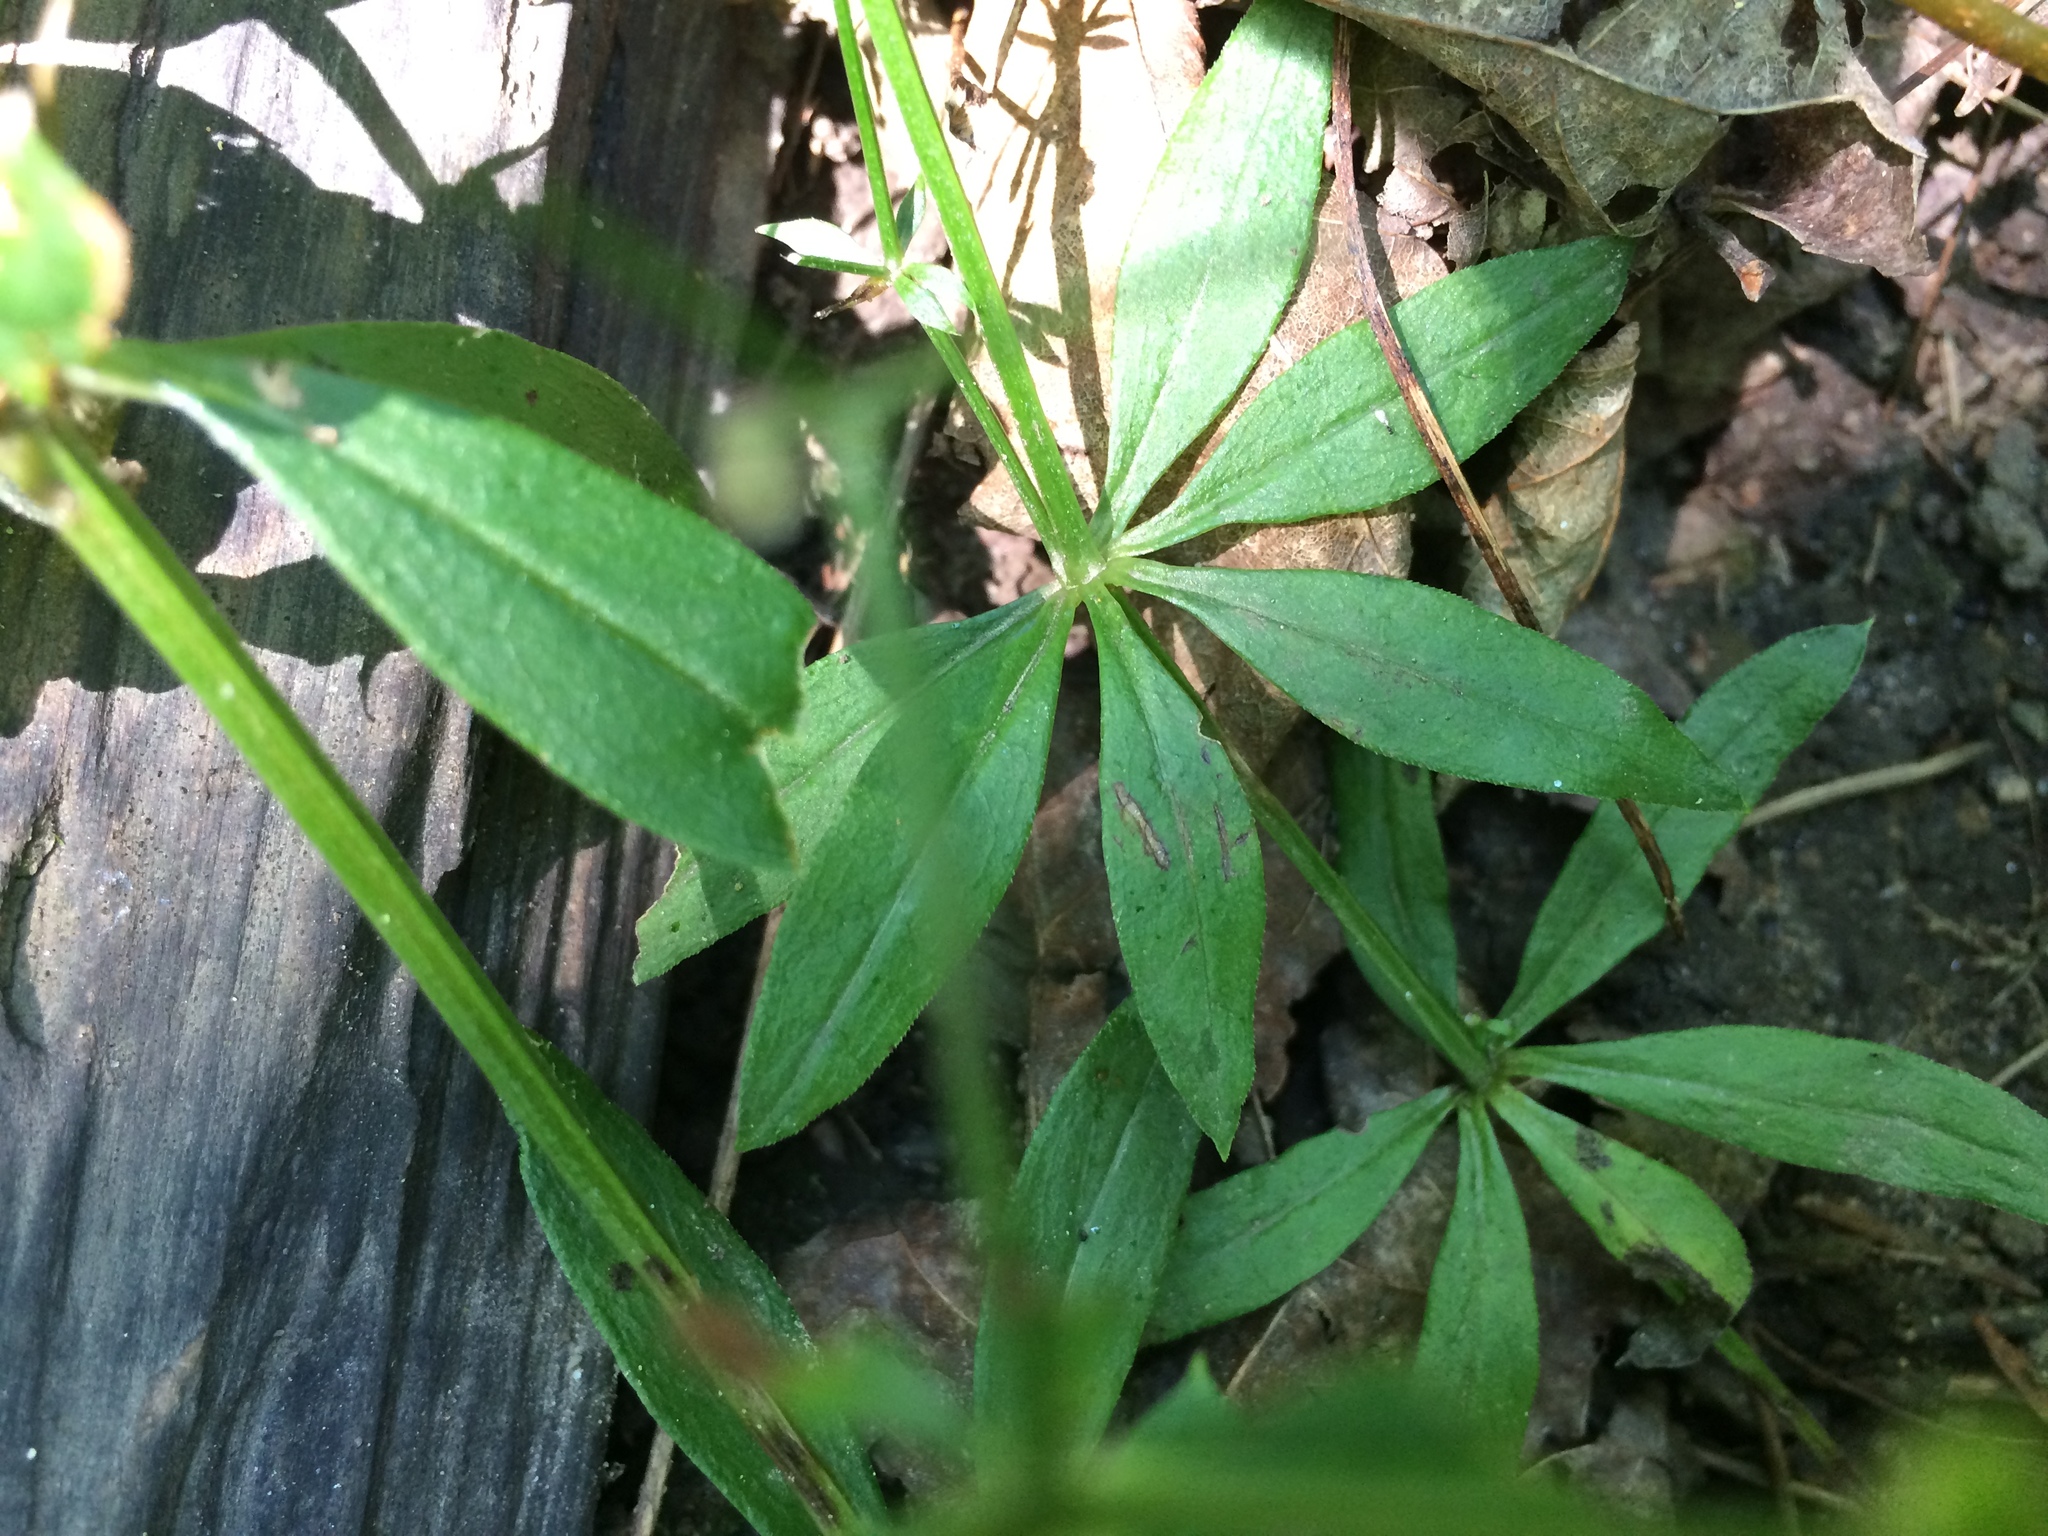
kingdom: Plantae
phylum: Tracheophyta
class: Magnoliopsida
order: Gentianales
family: Rubiaceae
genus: Galium
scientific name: Galium triflorum
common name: Fragrant bedstraw
